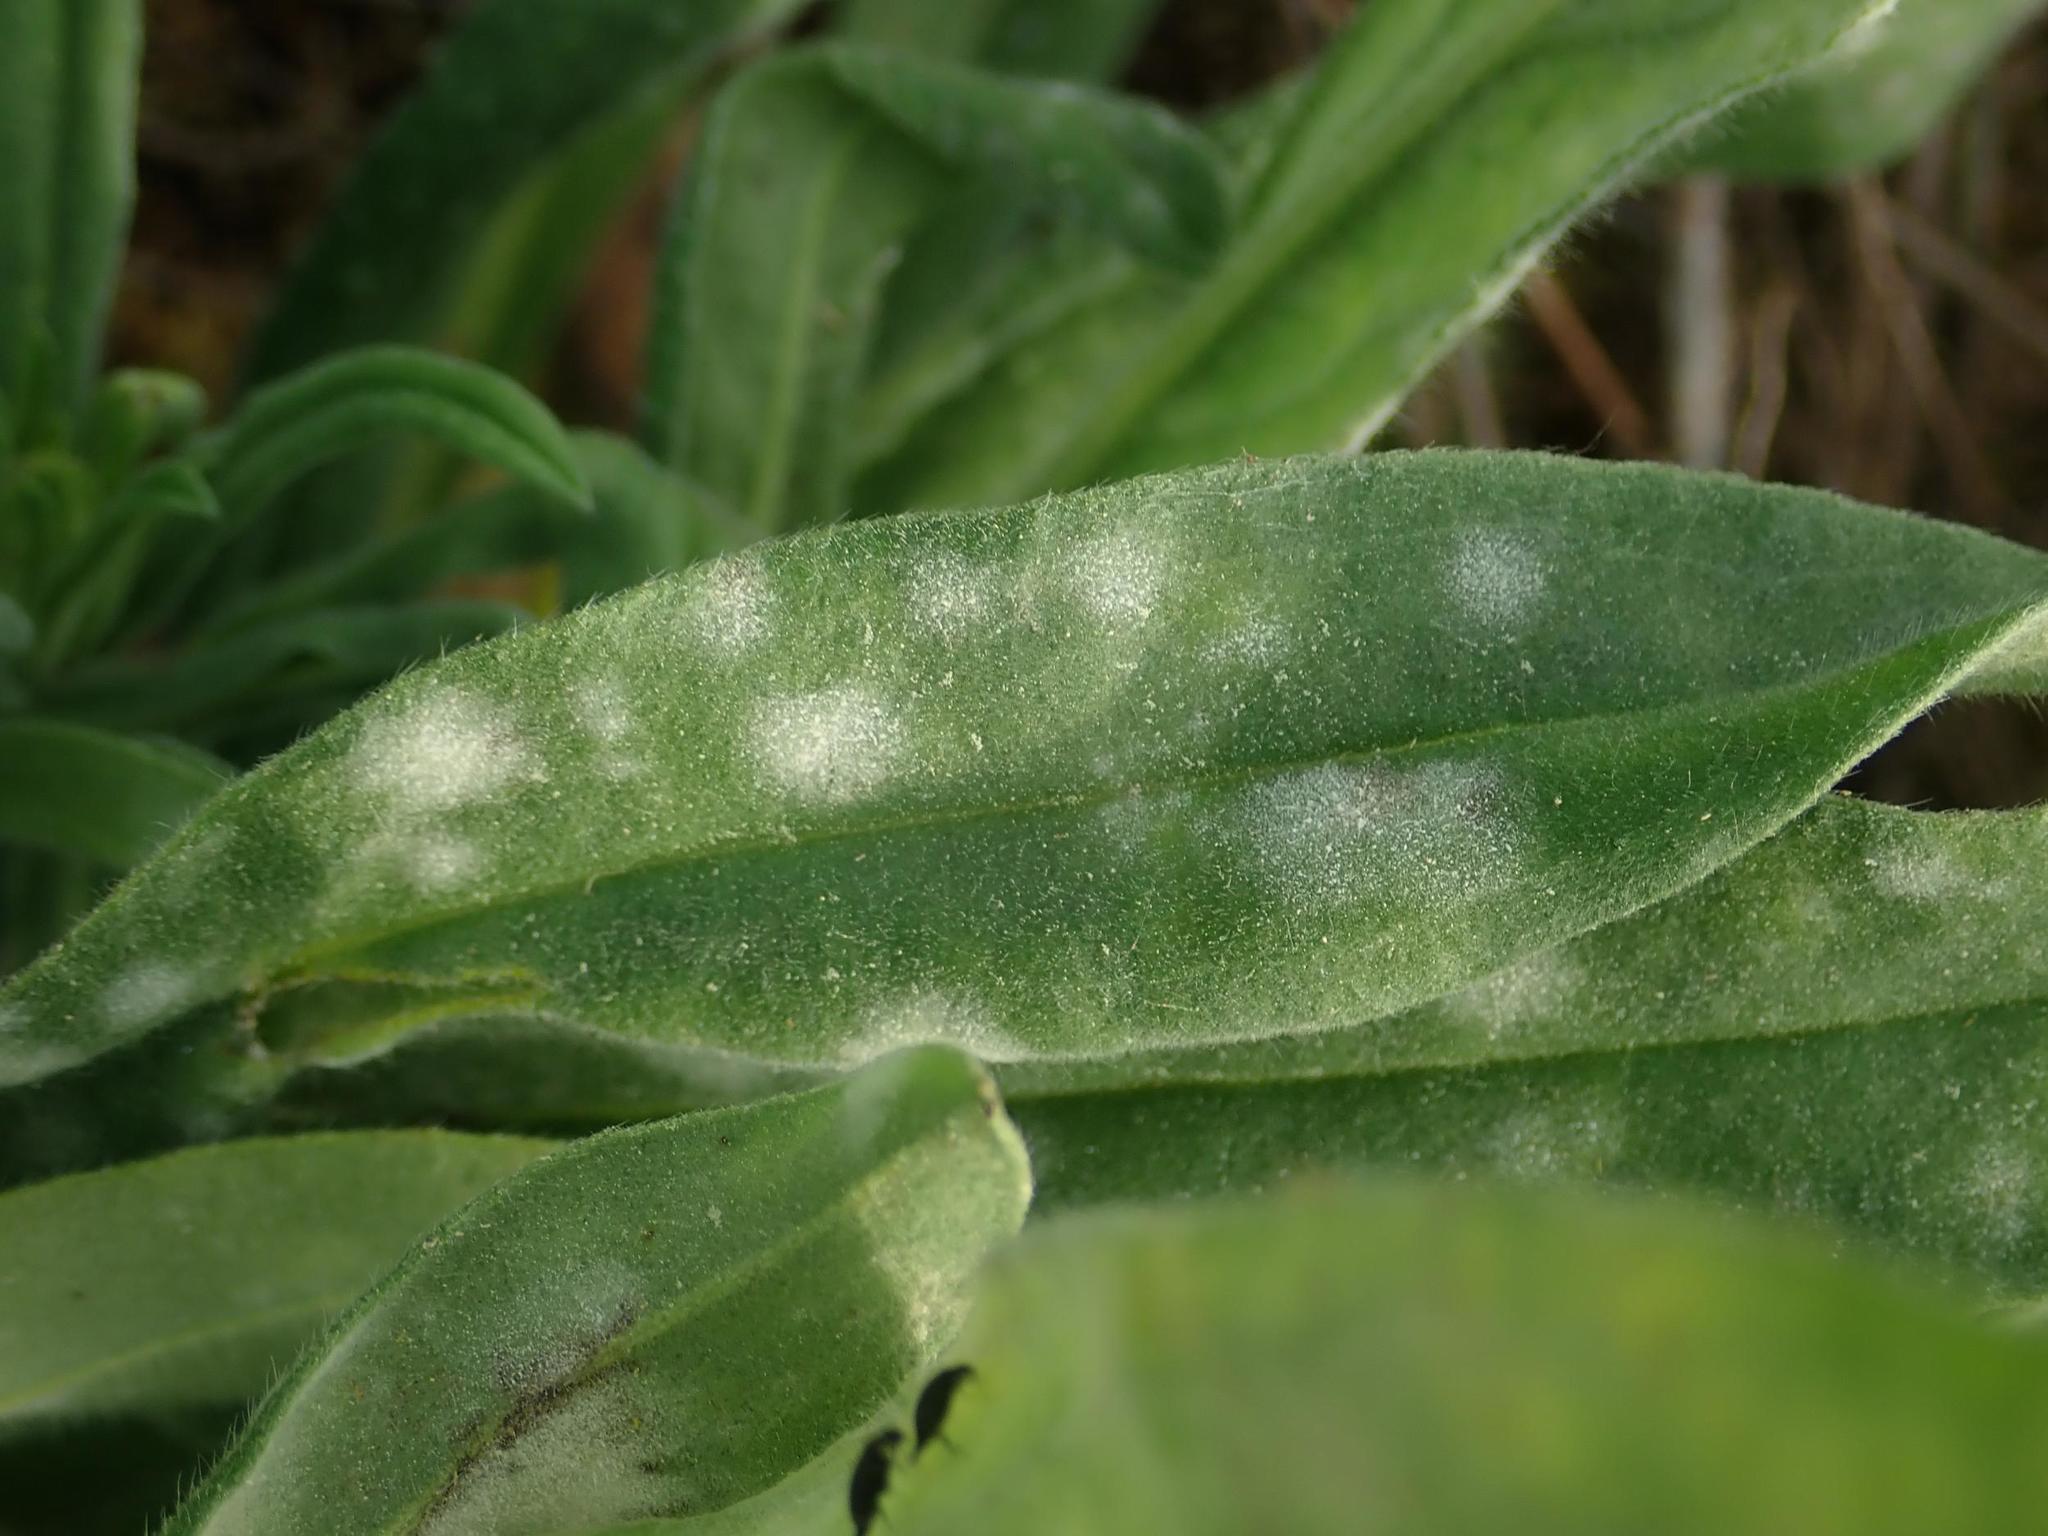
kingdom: Fungi
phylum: Ascomycota
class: Leotiomycetes
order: Helotiales
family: Erysiphaceae
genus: Golovinomyces
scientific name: Golovinomyces asperifolii
